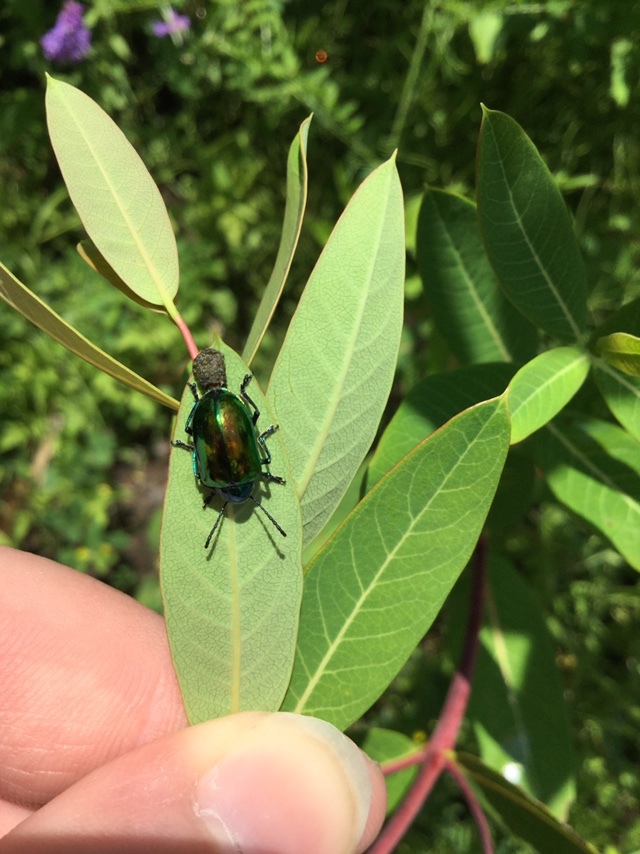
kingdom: Animalia
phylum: Arthropoda
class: Insecta
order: Coleoptera
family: Chrysomelidae
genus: Chrysochus
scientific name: Chrysochus auratus
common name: Dogbane leaf beetle
